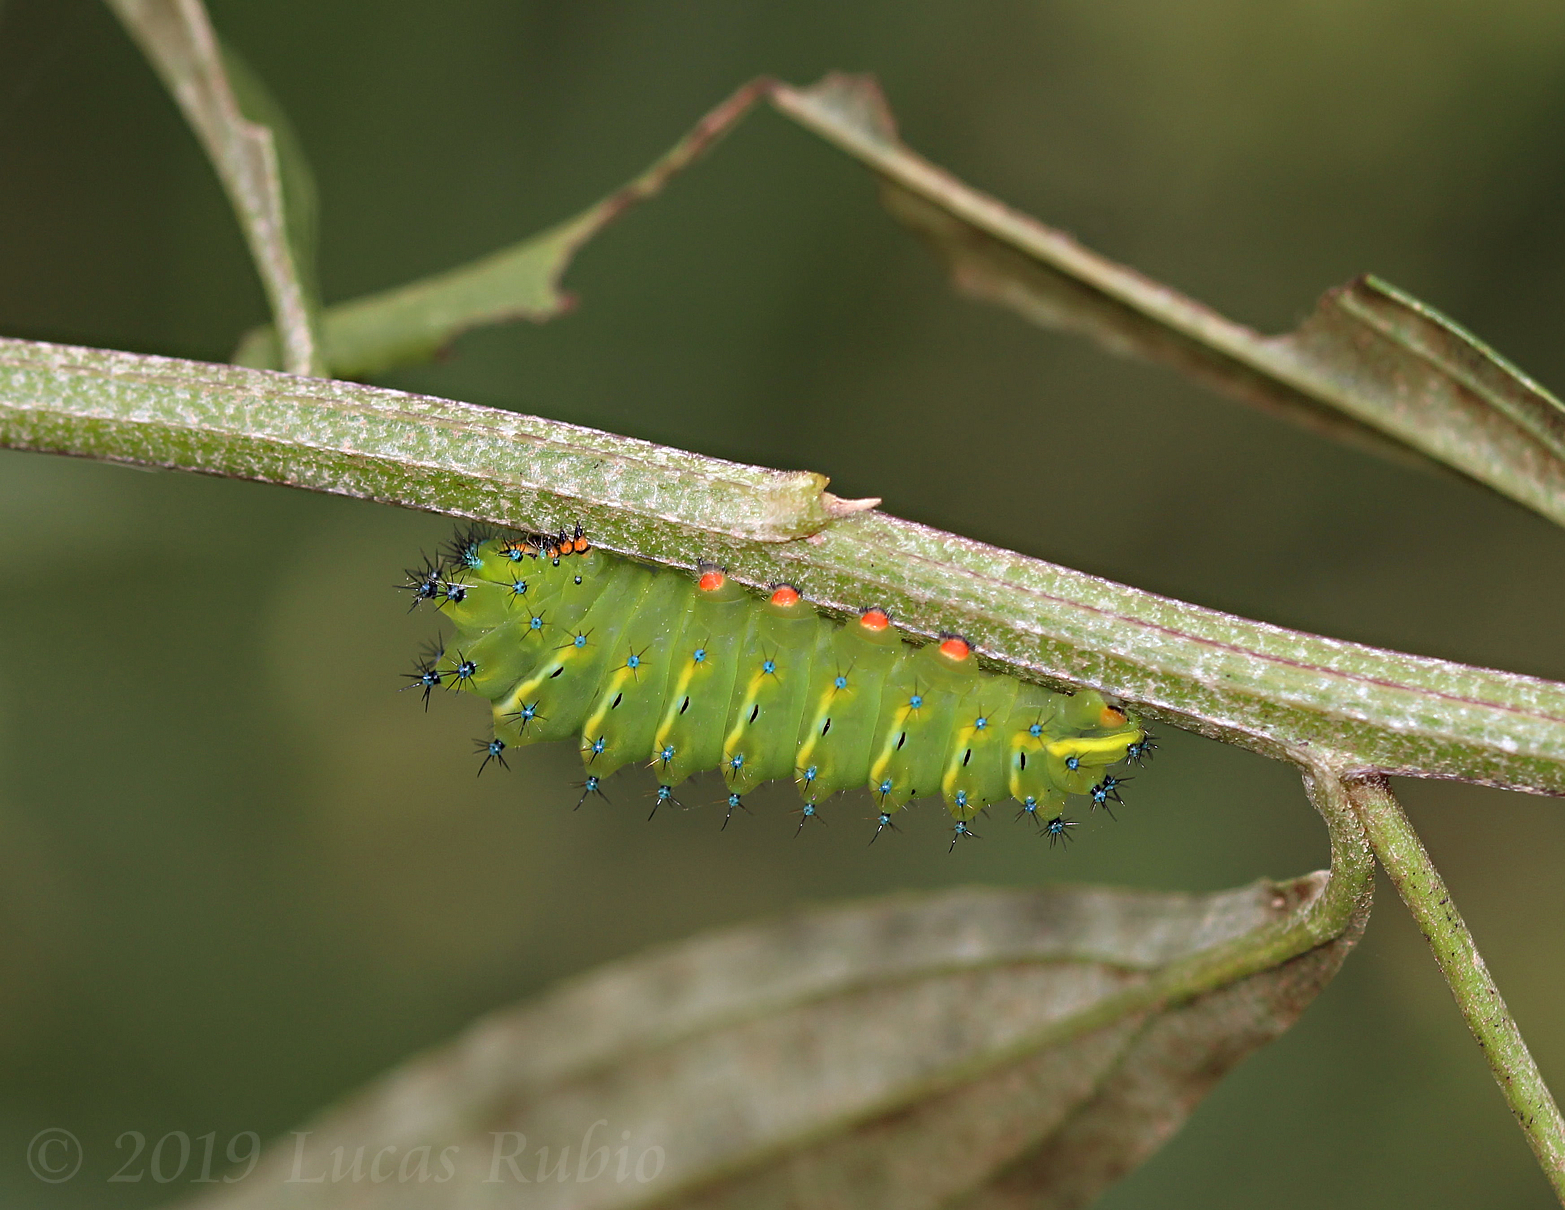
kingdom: Animalia
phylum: Arthropoda
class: Insecta
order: Lepidoptera
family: Saturniidae
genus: Rothschildia
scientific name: Rothschildia jacobaeae
